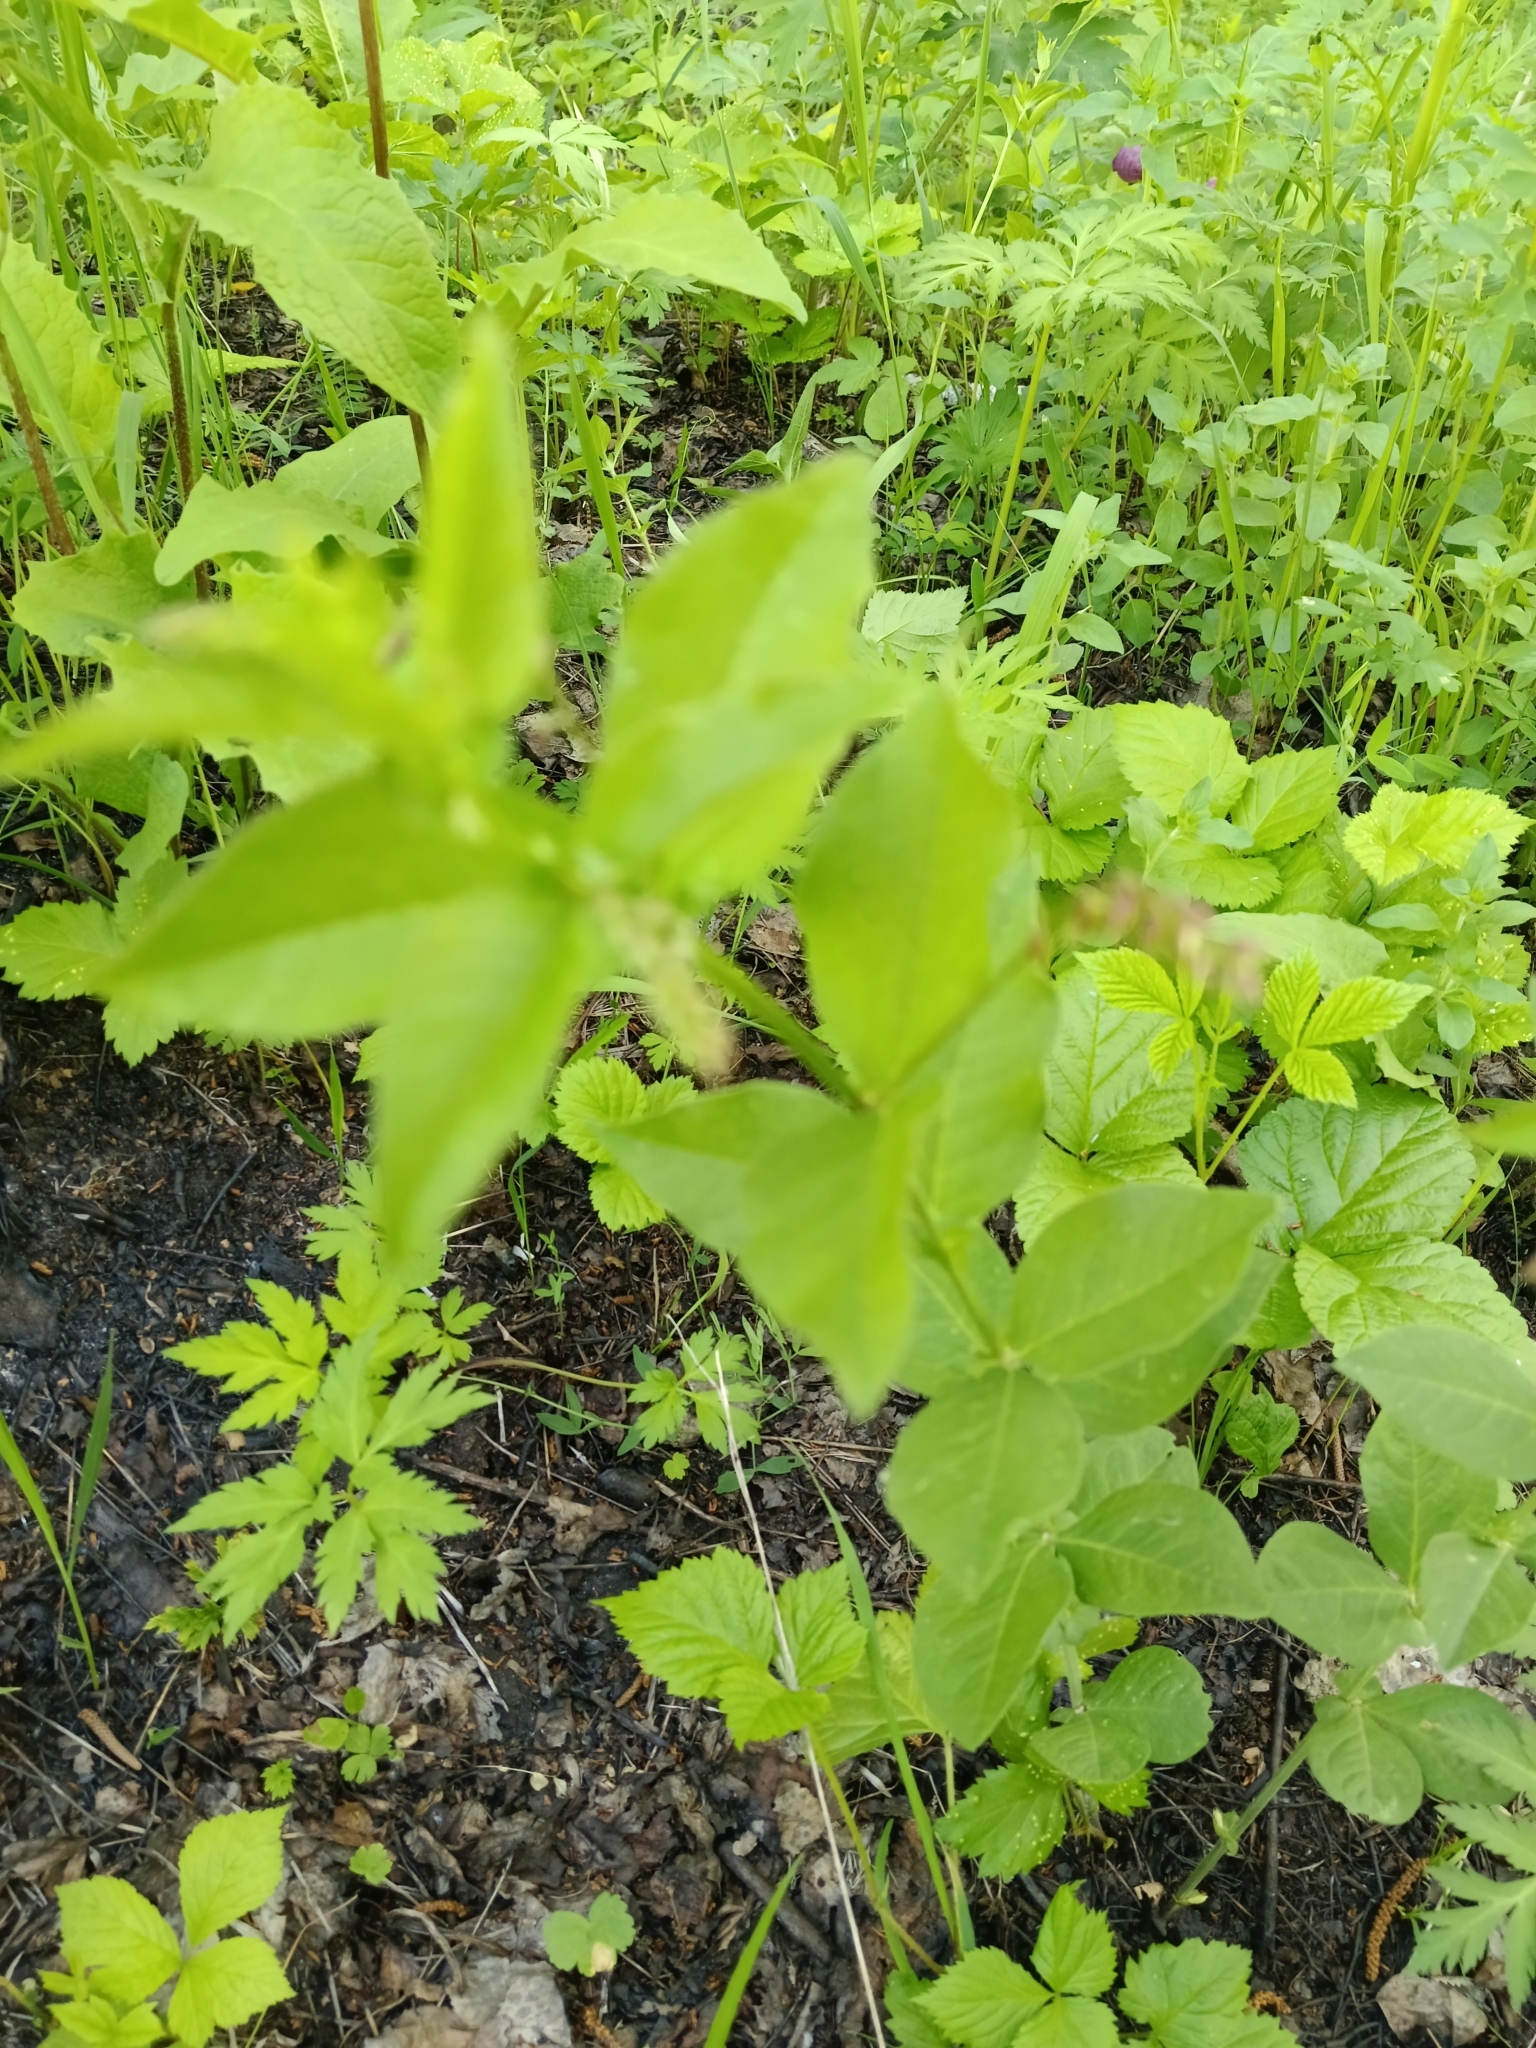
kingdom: Plantae
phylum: Tracheophyta
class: Magnoliopsida
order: Fabales
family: Fabaceae
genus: Vicia
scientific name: Vicia unijuga
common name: Two-leaf vetch
